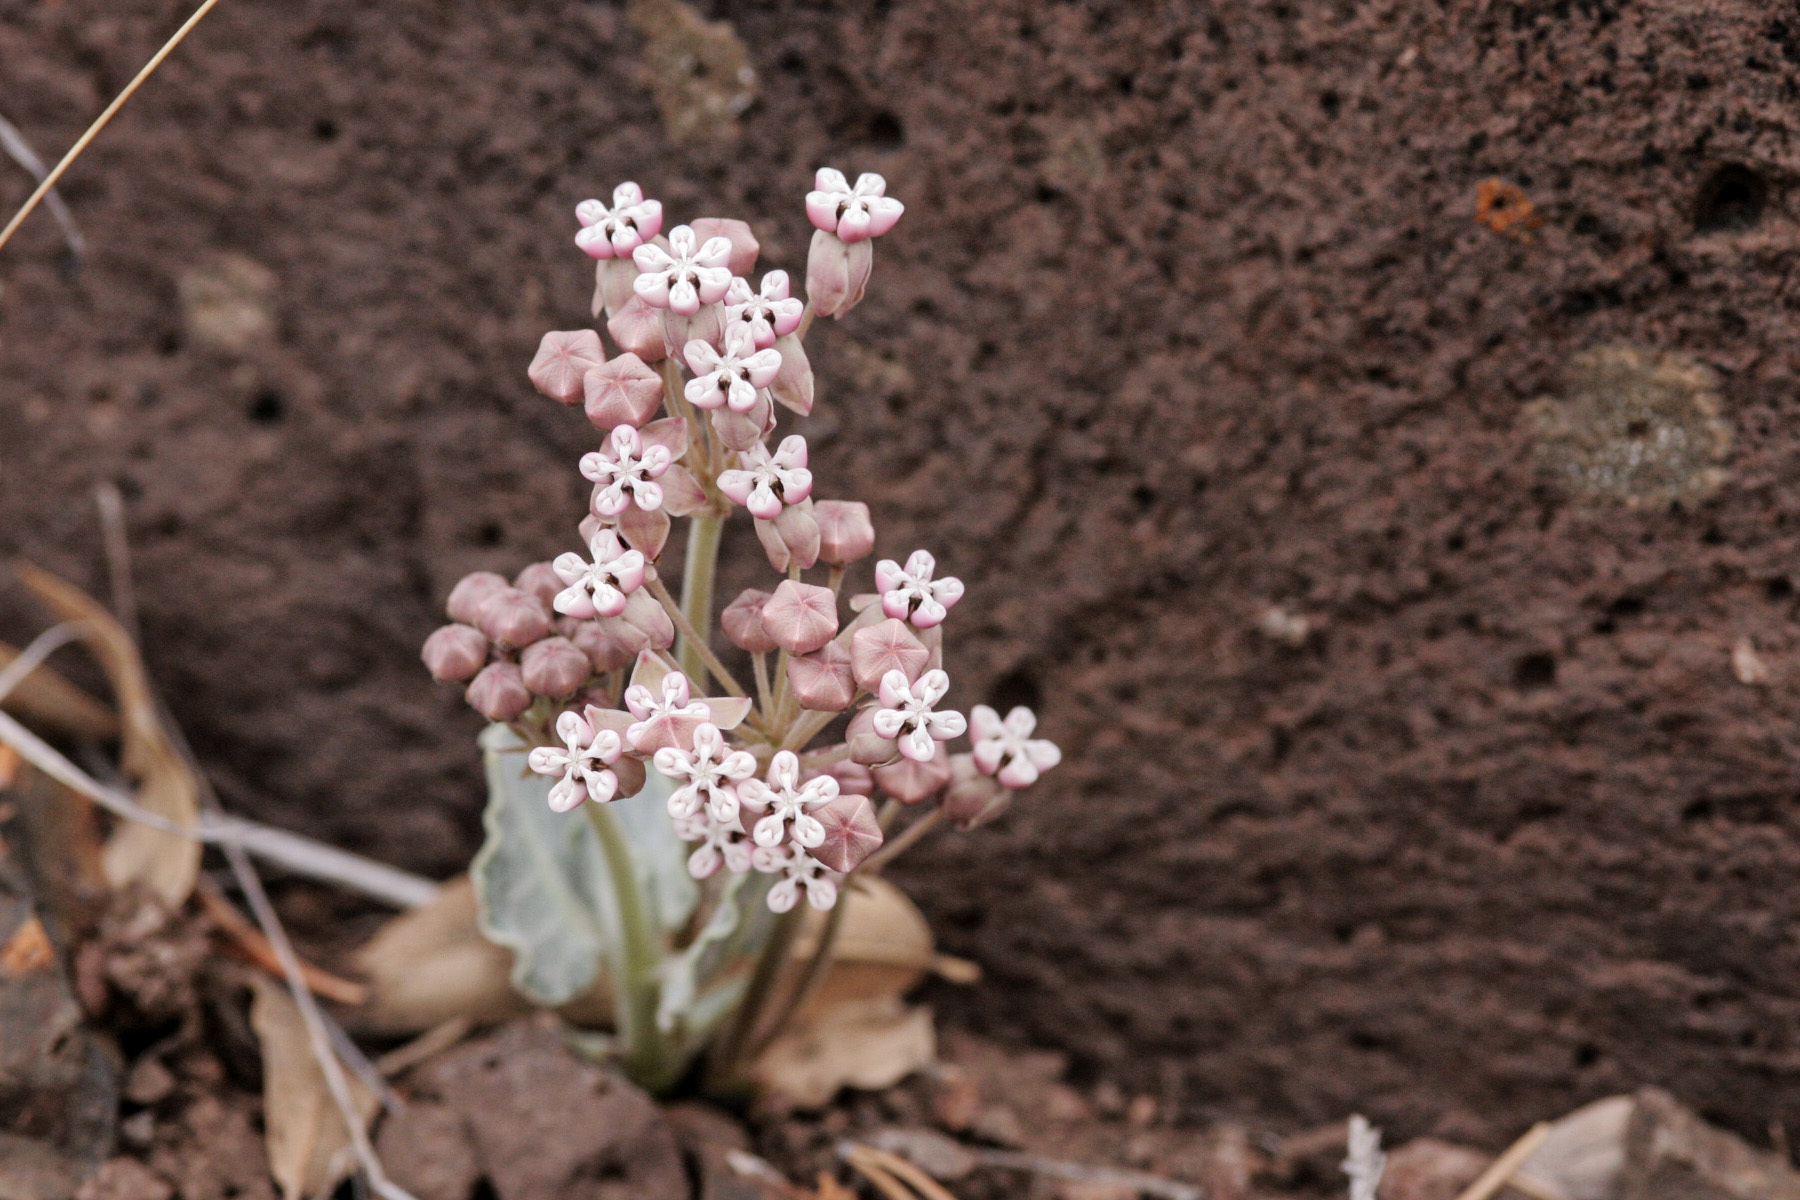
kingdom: Plantae
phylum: Tracheophyta
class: Magnoliopsida
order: Gentianales
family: Apocynaceae
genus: Asclepias
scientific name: Asclepias nummularia
